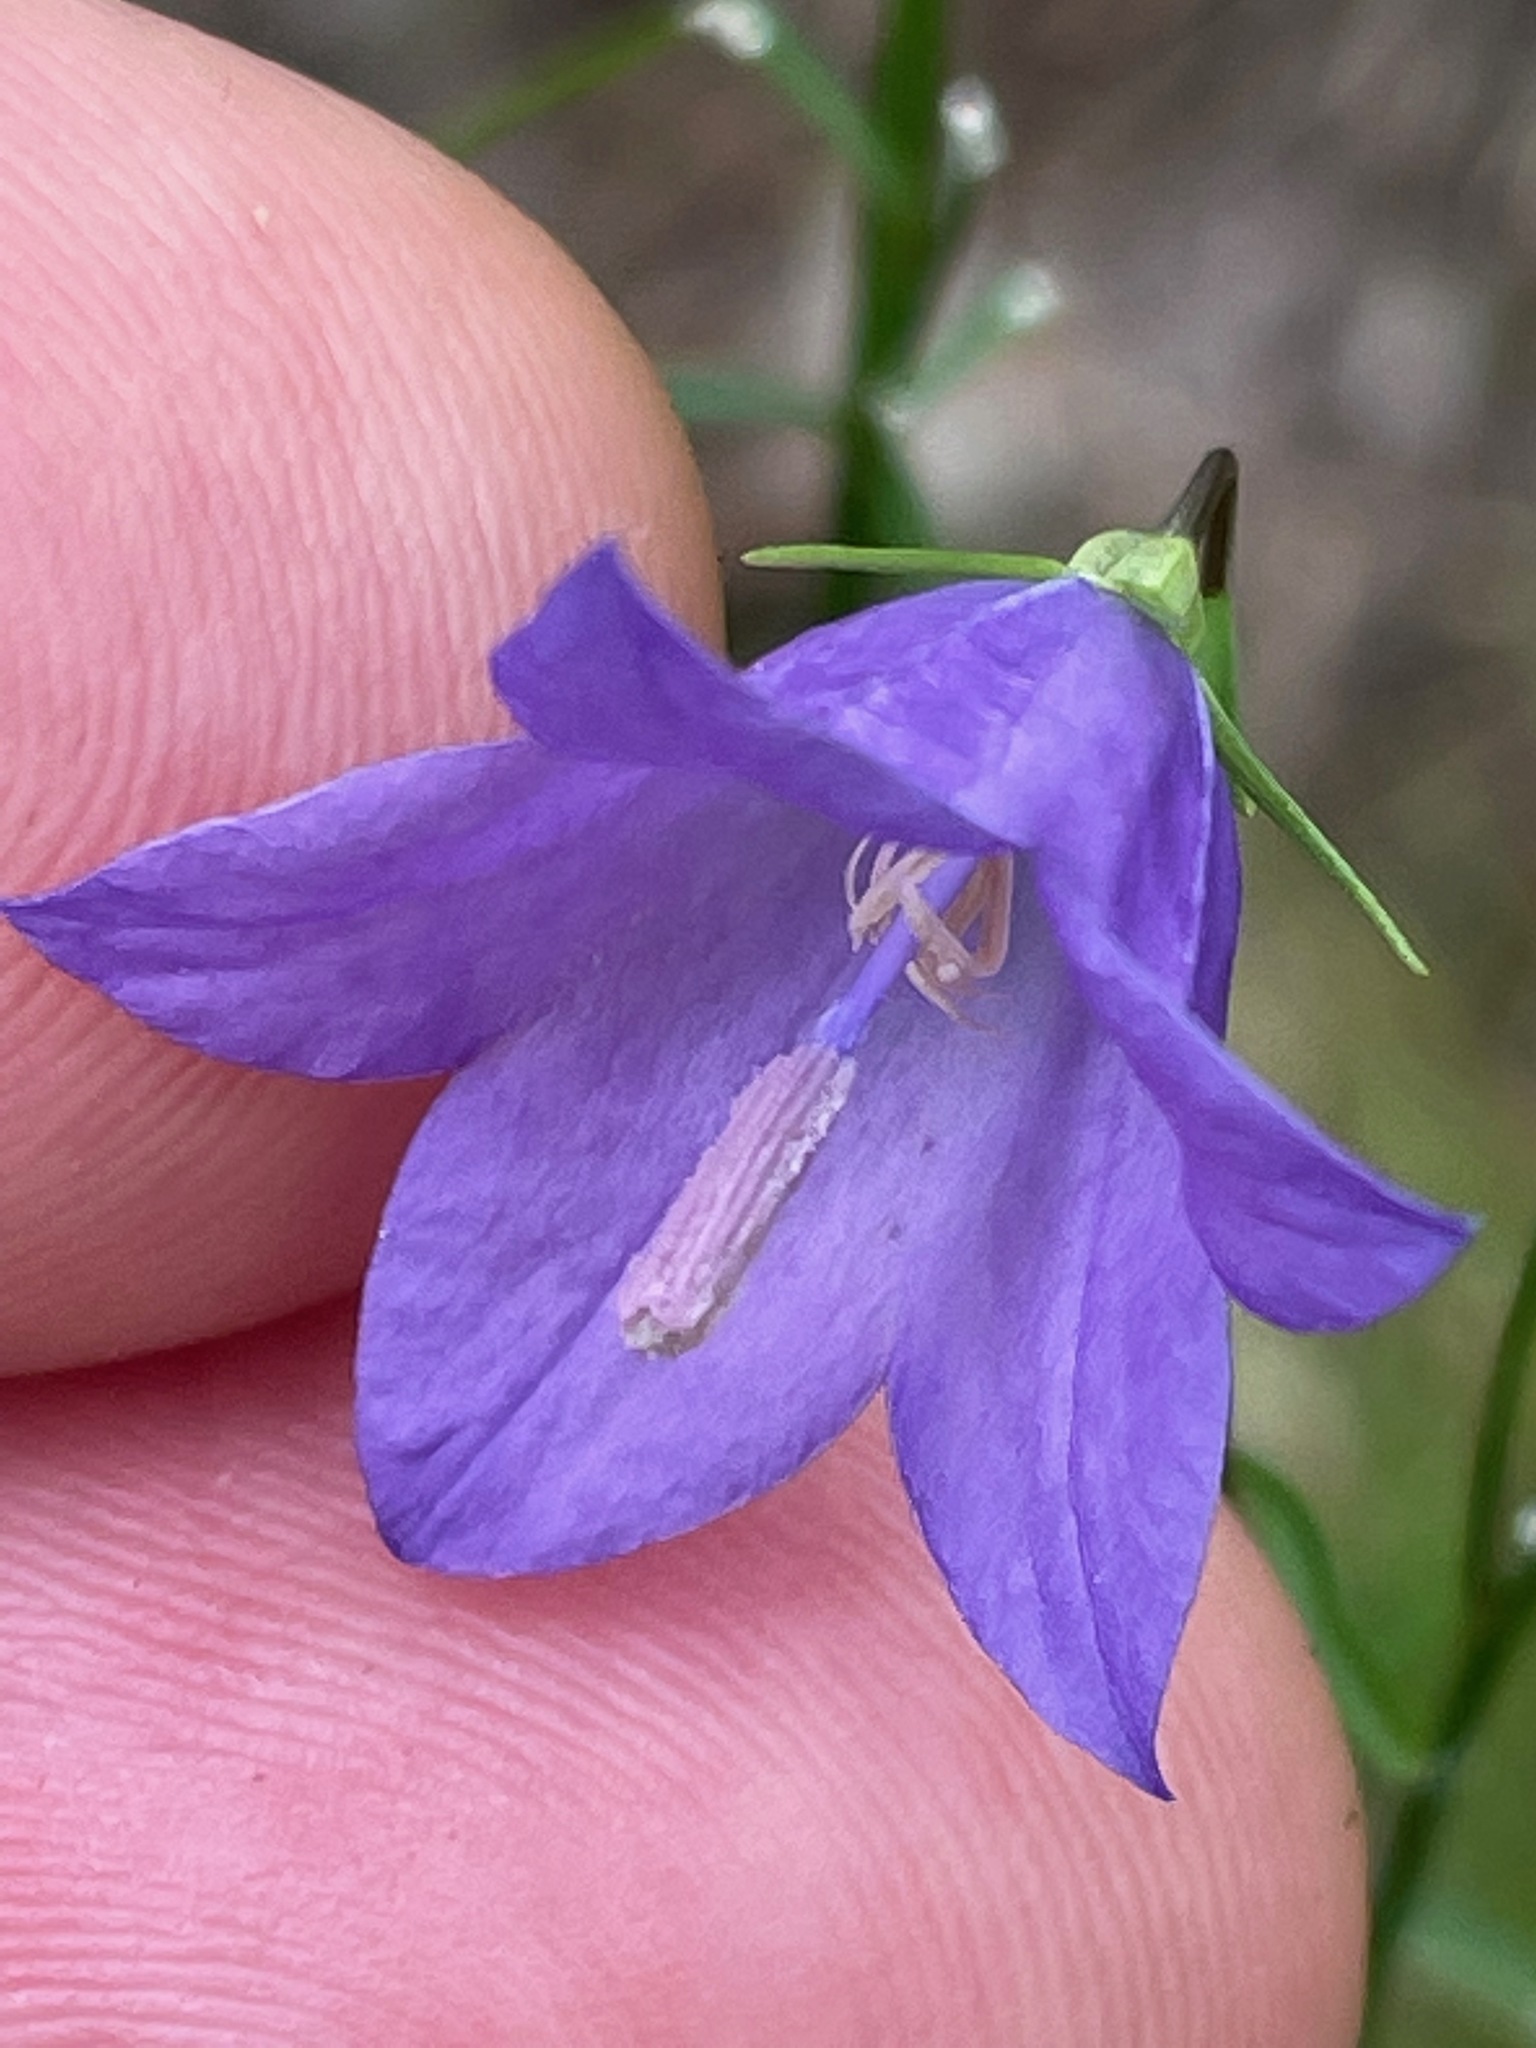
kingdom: Plantae
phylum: Tracheophyta
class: Magnoliopsida
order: Asterales
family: Campanulaceae
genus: Campanula
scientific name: Campanula intercedens
